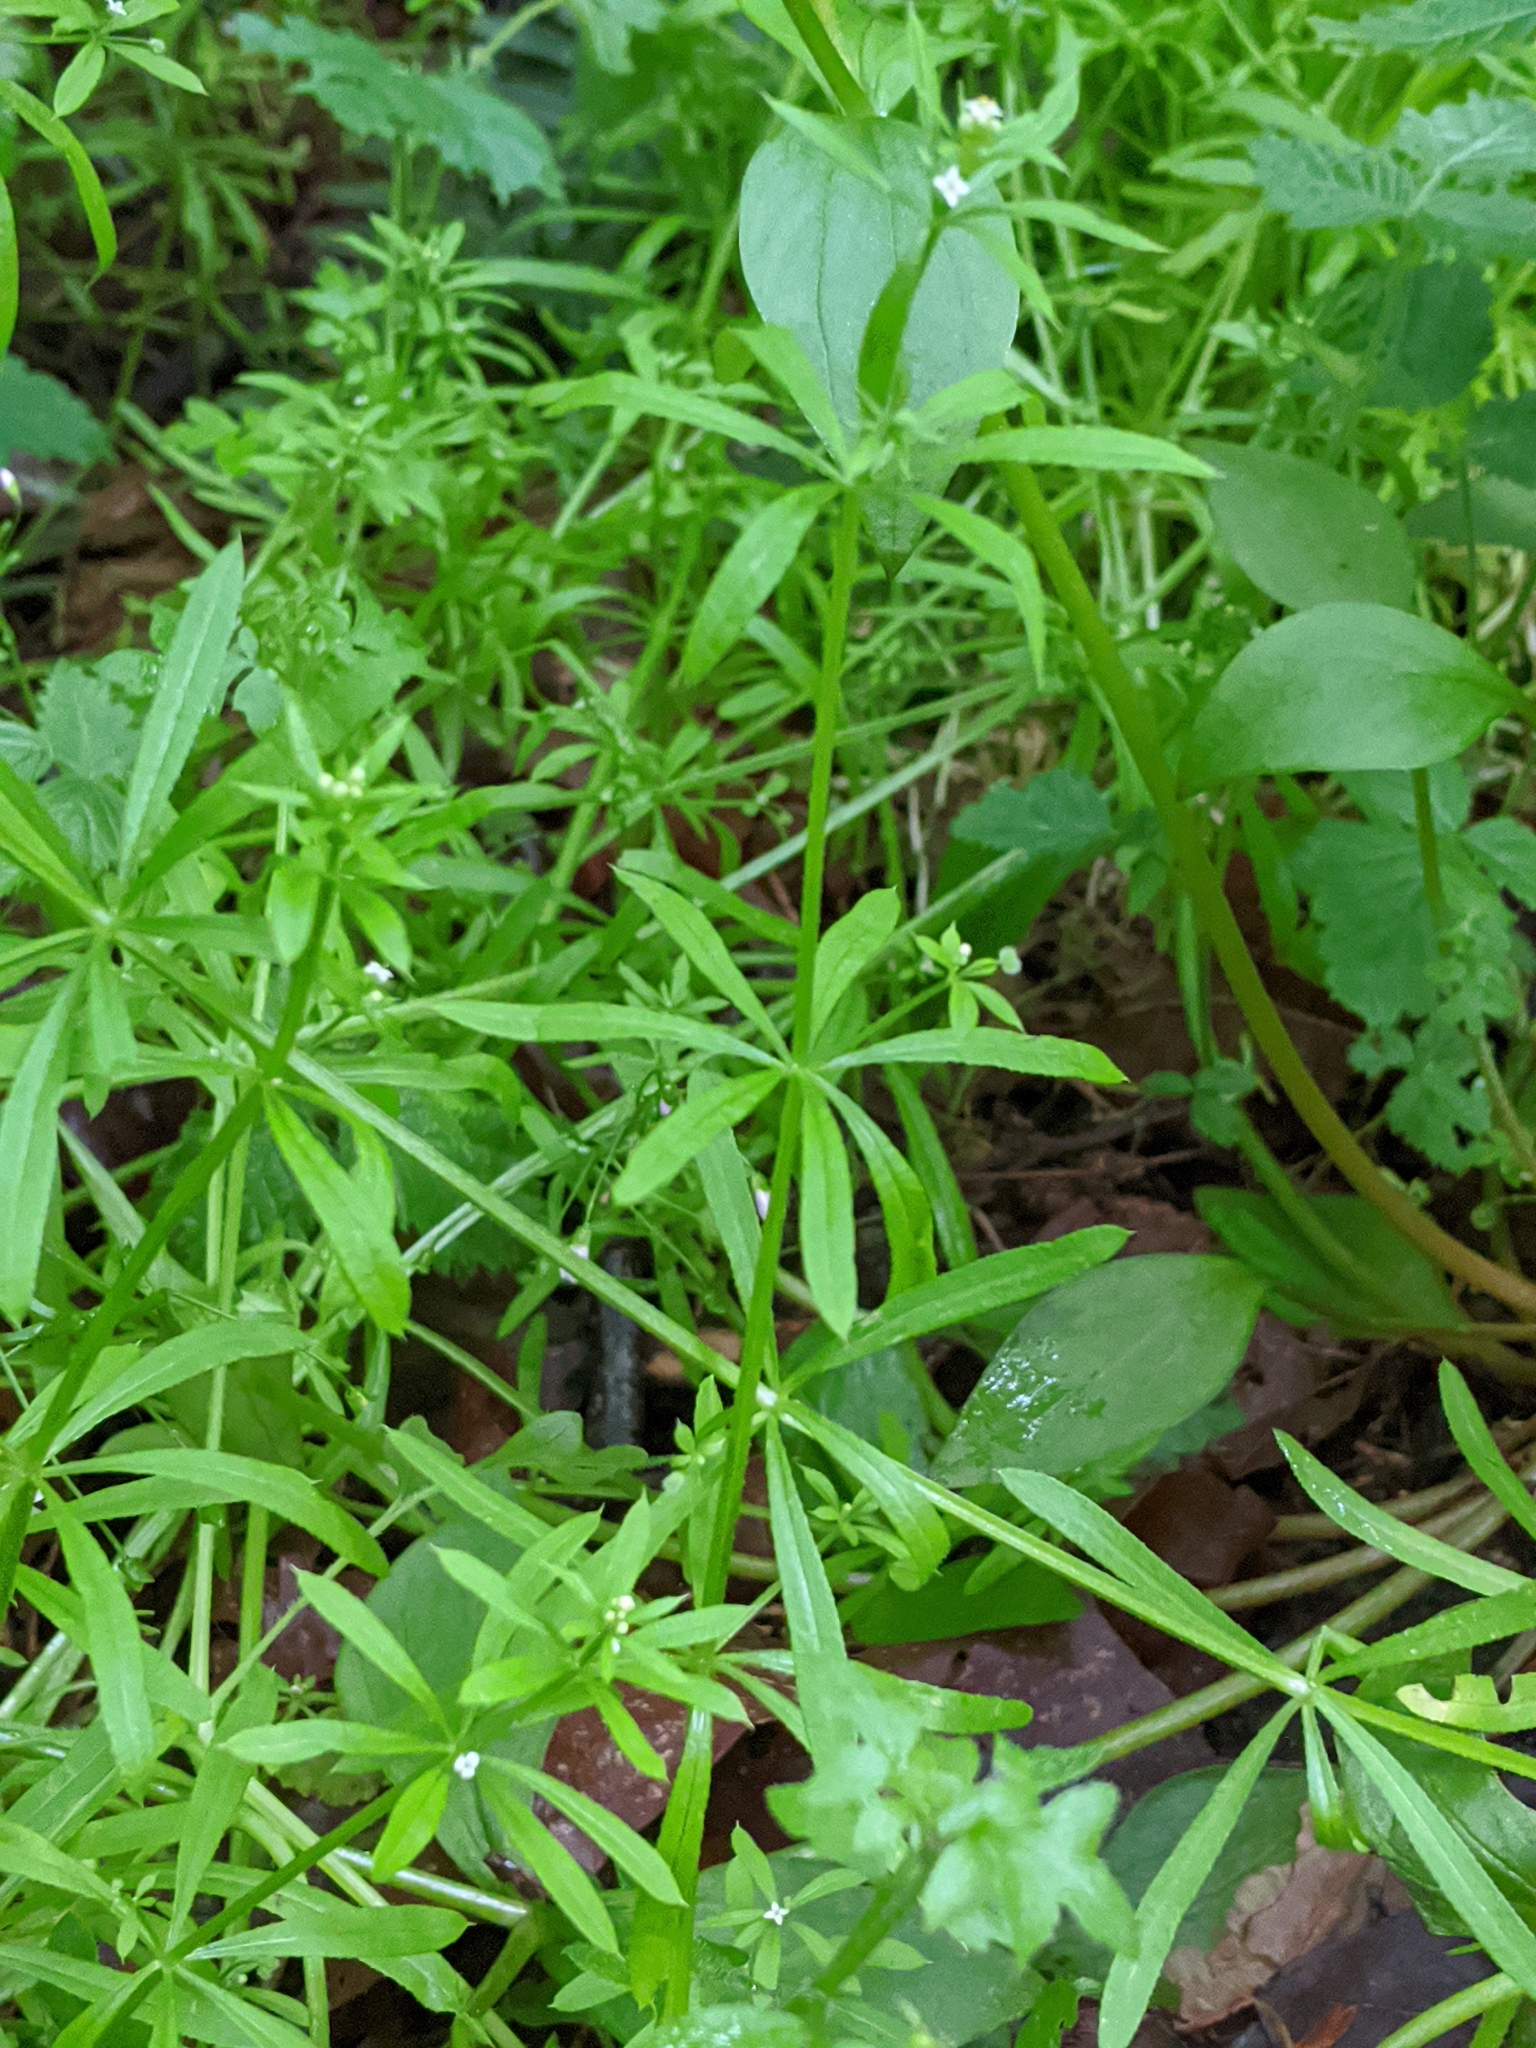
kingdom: Plantae
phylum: Tracheophyta
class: Magnoliopsida
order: Gentianales
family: Rubiaceae
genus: Galium
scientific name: Galium aparine
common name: Cleavers
